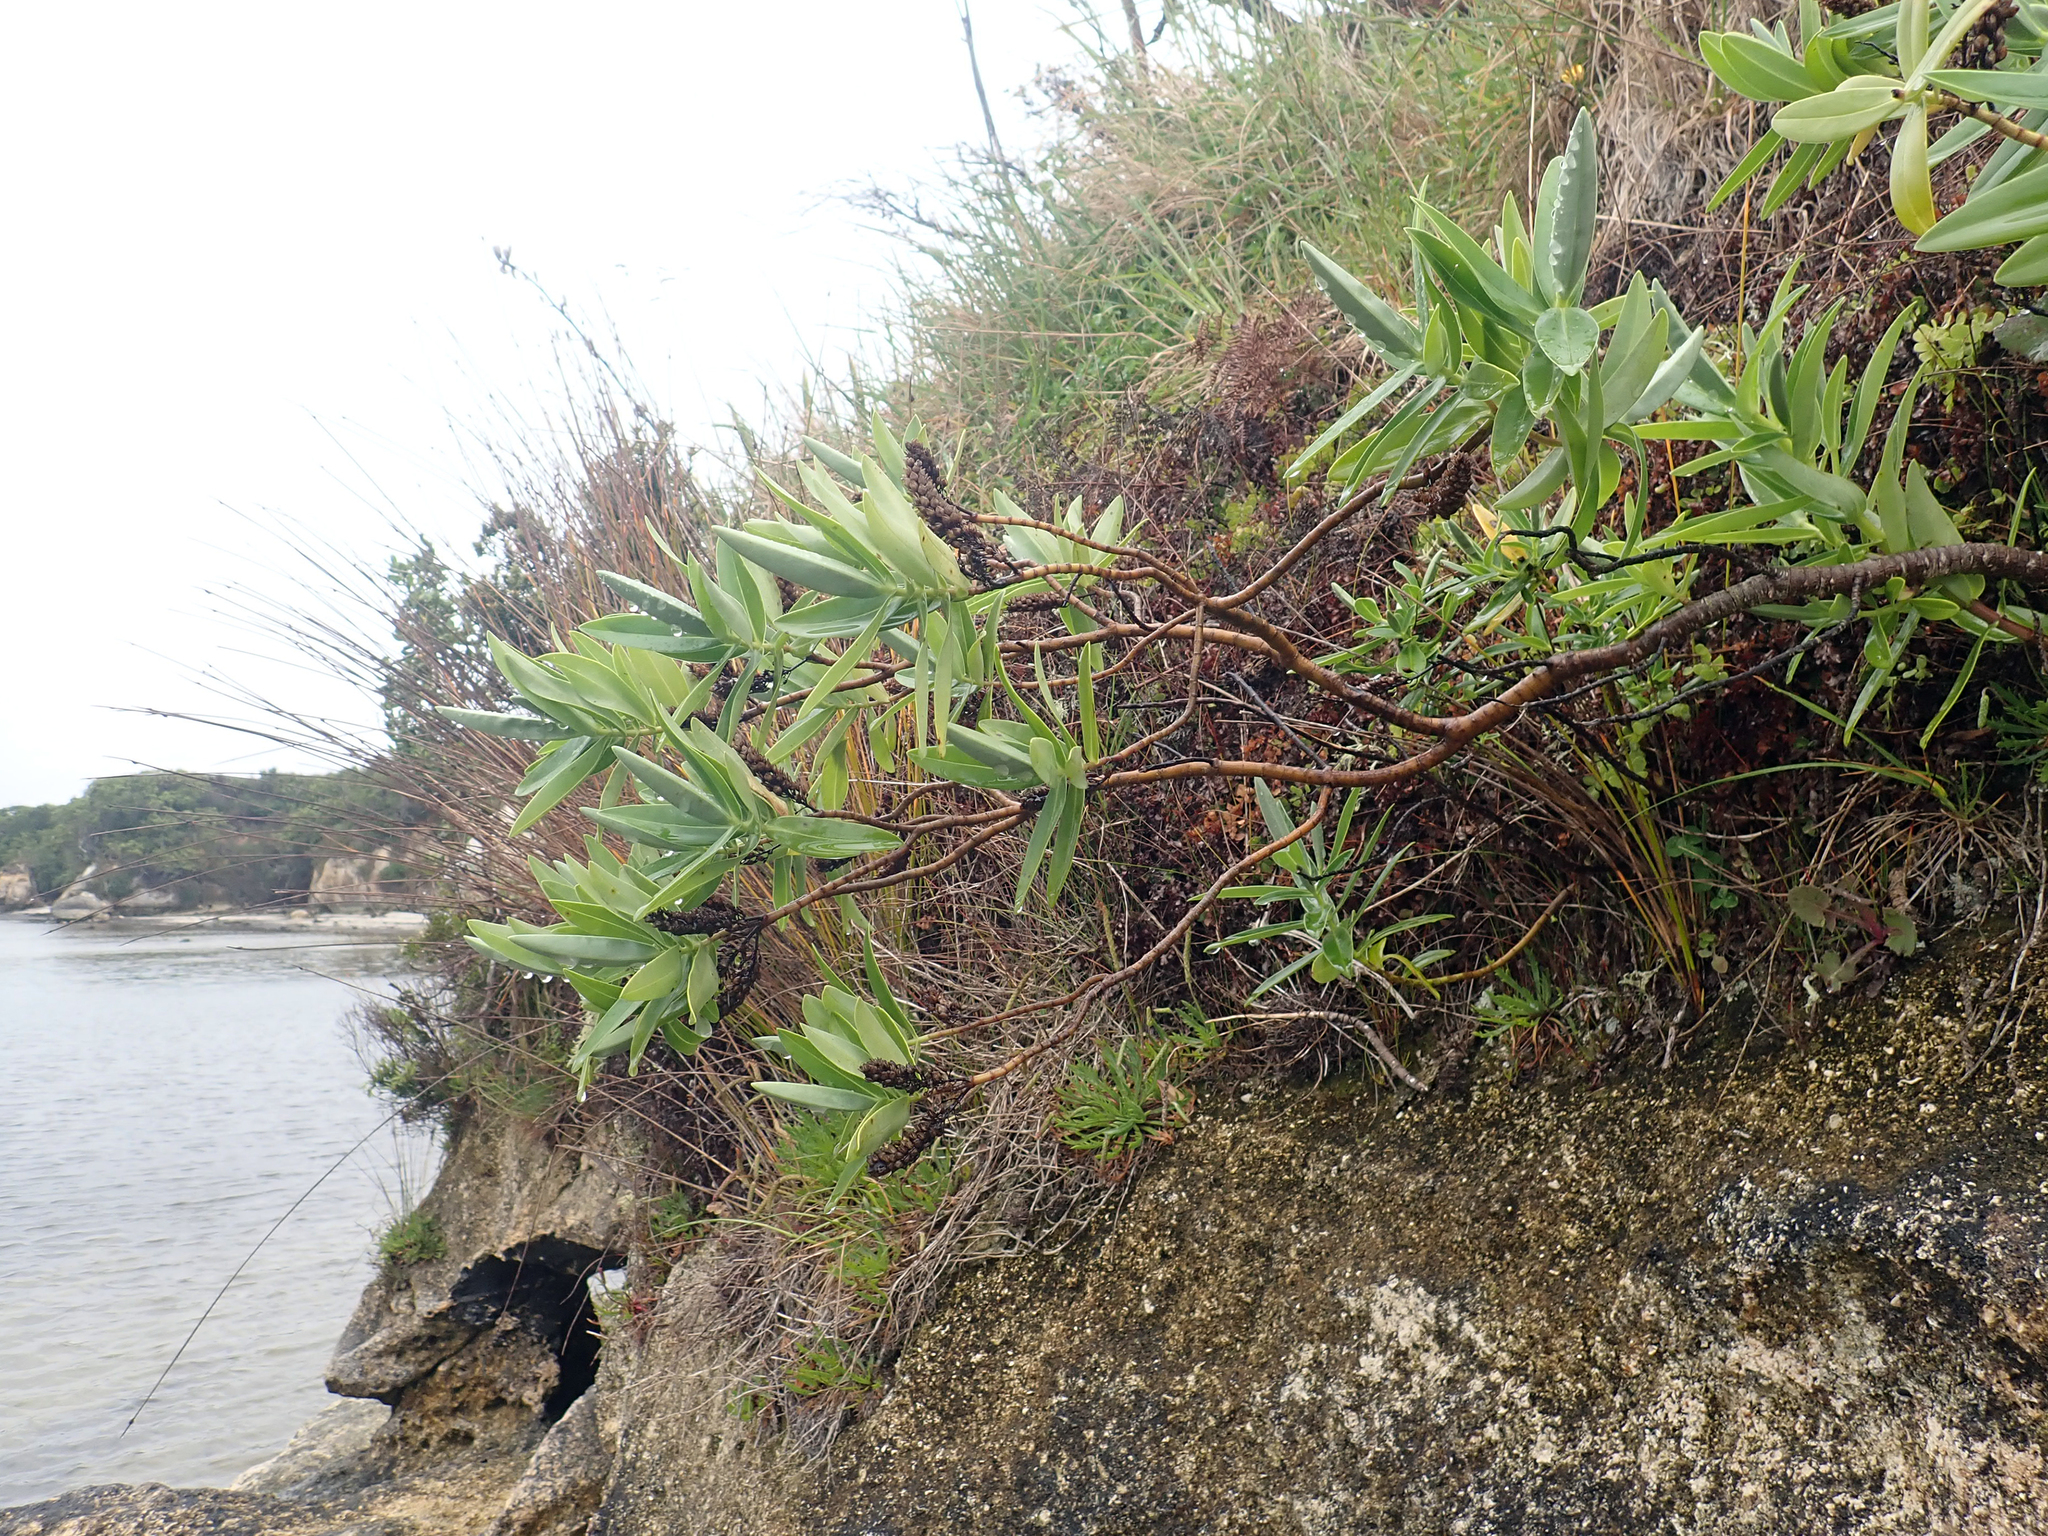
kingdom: Plantae
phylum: Tracheophyta
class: Magnoliopsida
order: Lamiales
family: Plantaginaceae
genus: Veronica
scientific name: Veronica dieffenbachii
